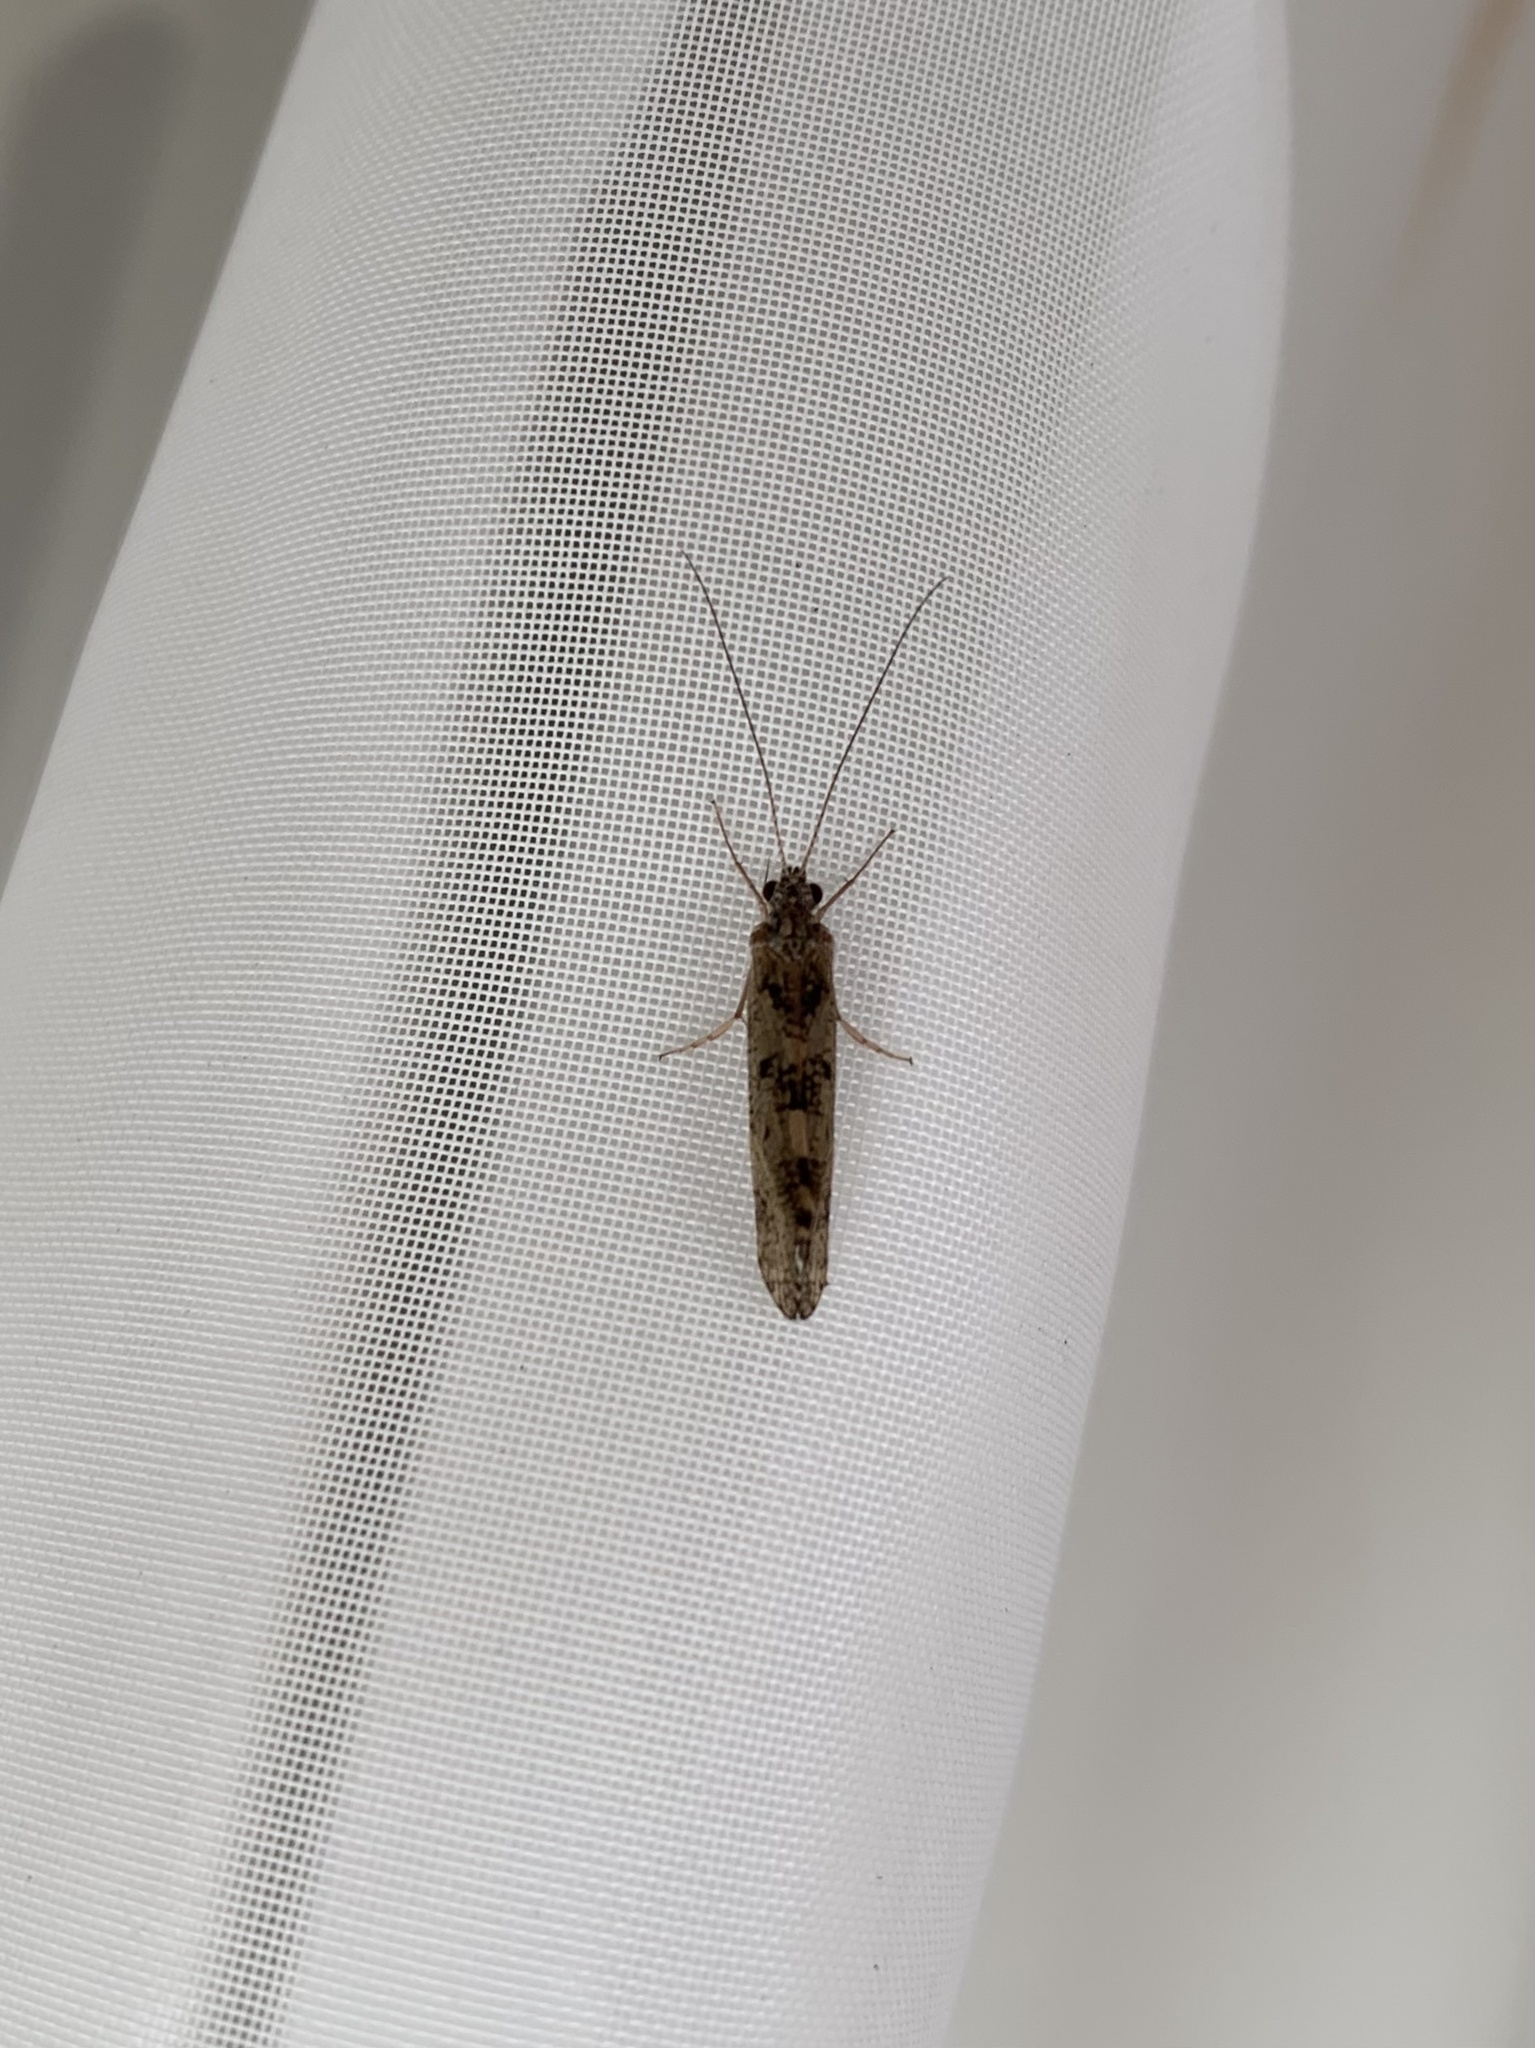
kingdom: Animalia
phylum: Arthropoda
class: Insecta
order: Trichoptera
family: Hydropsychidae
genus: Hydropsyche
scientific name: Hydropsyche sciligra
